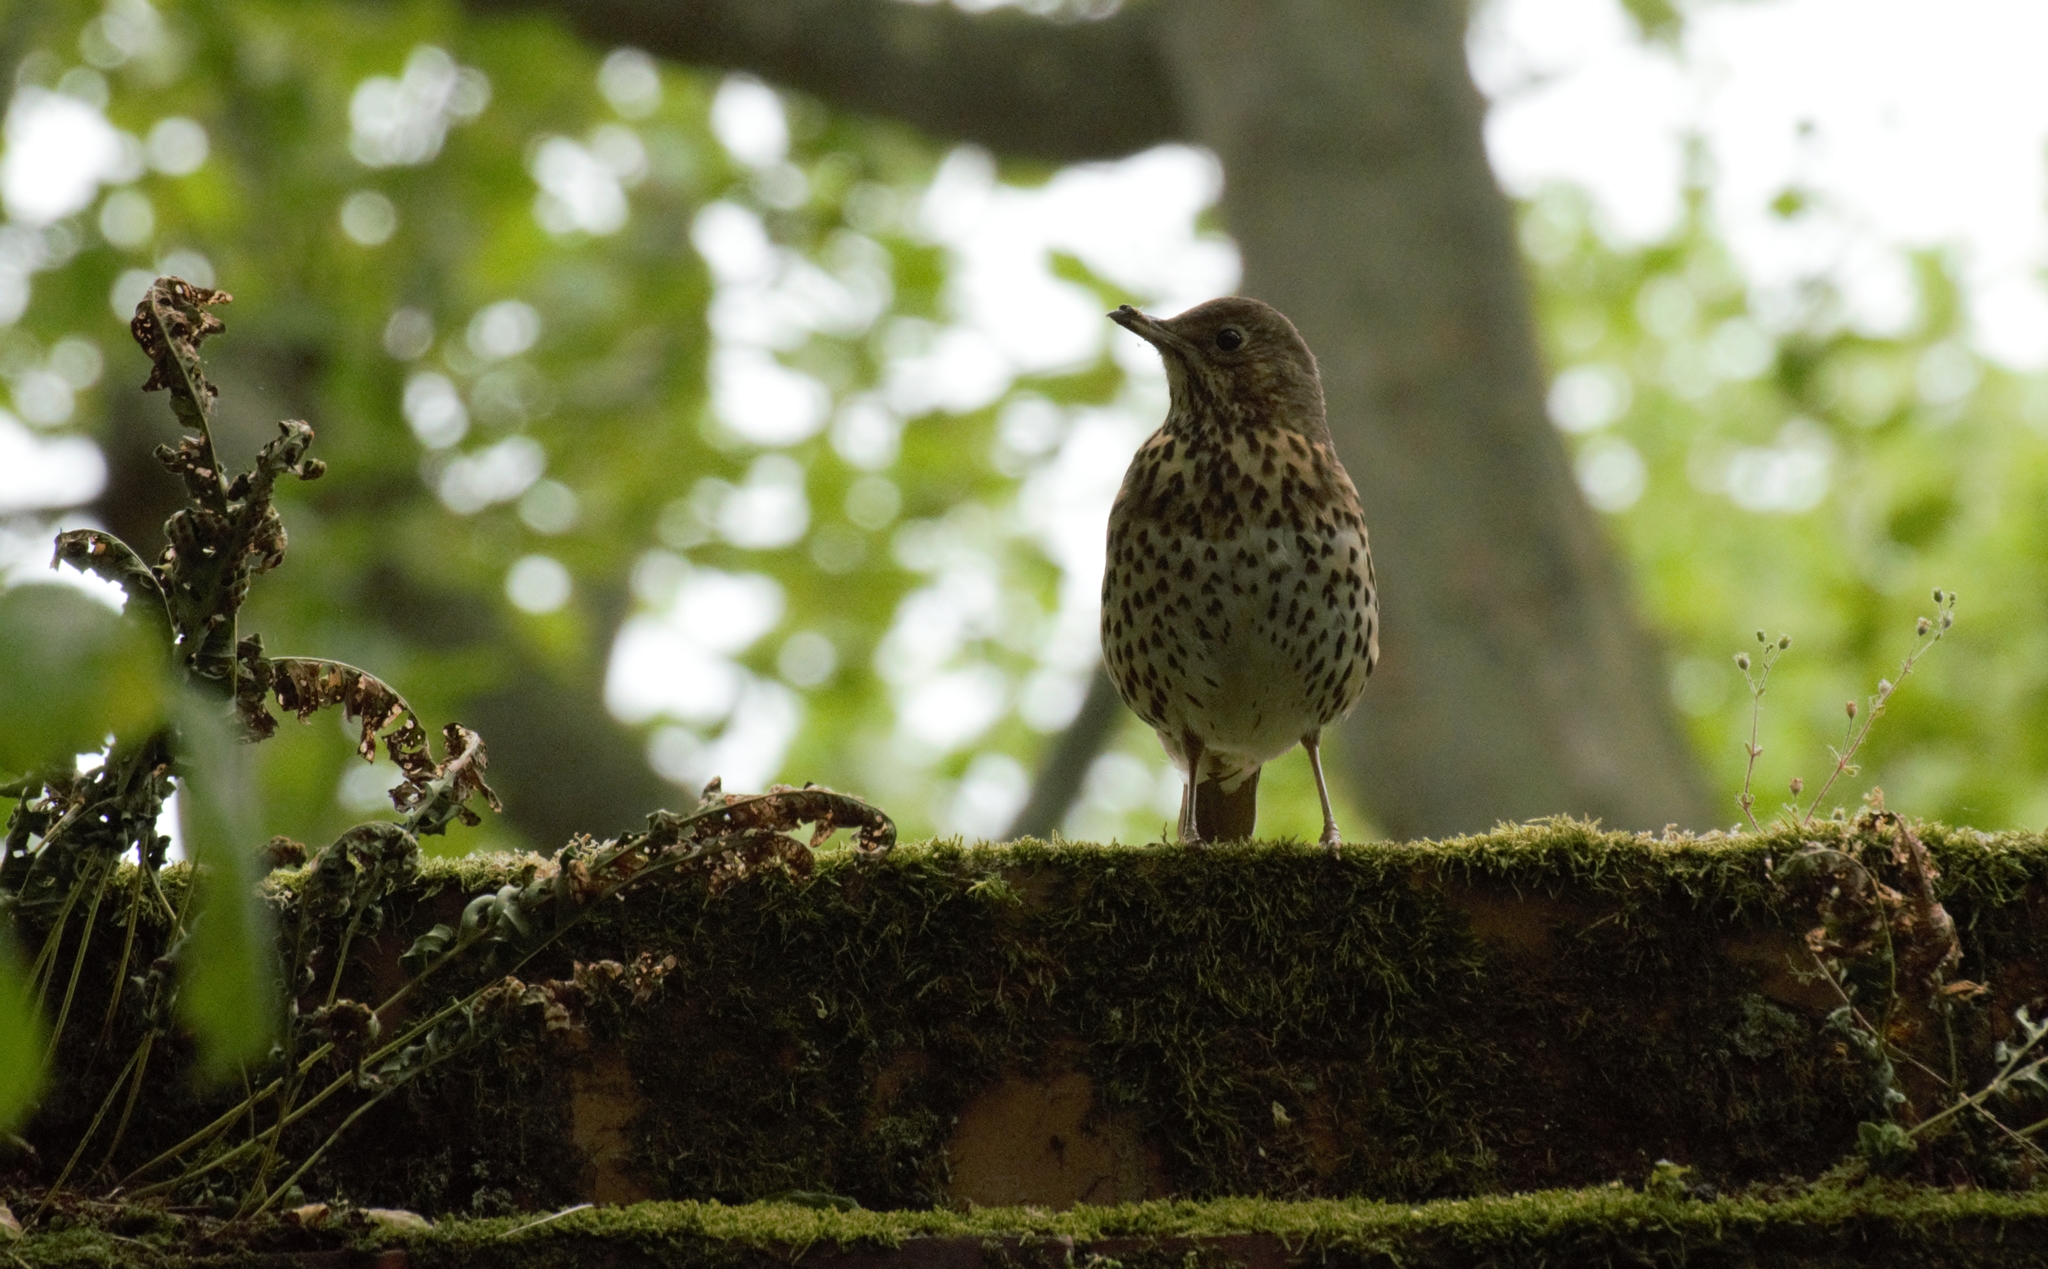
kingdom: Animalia
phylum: Chordata
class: Aves
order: Passeriformes
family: Turdidae
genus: Turdus
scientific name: Turdus philomelos
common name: Song thrush
